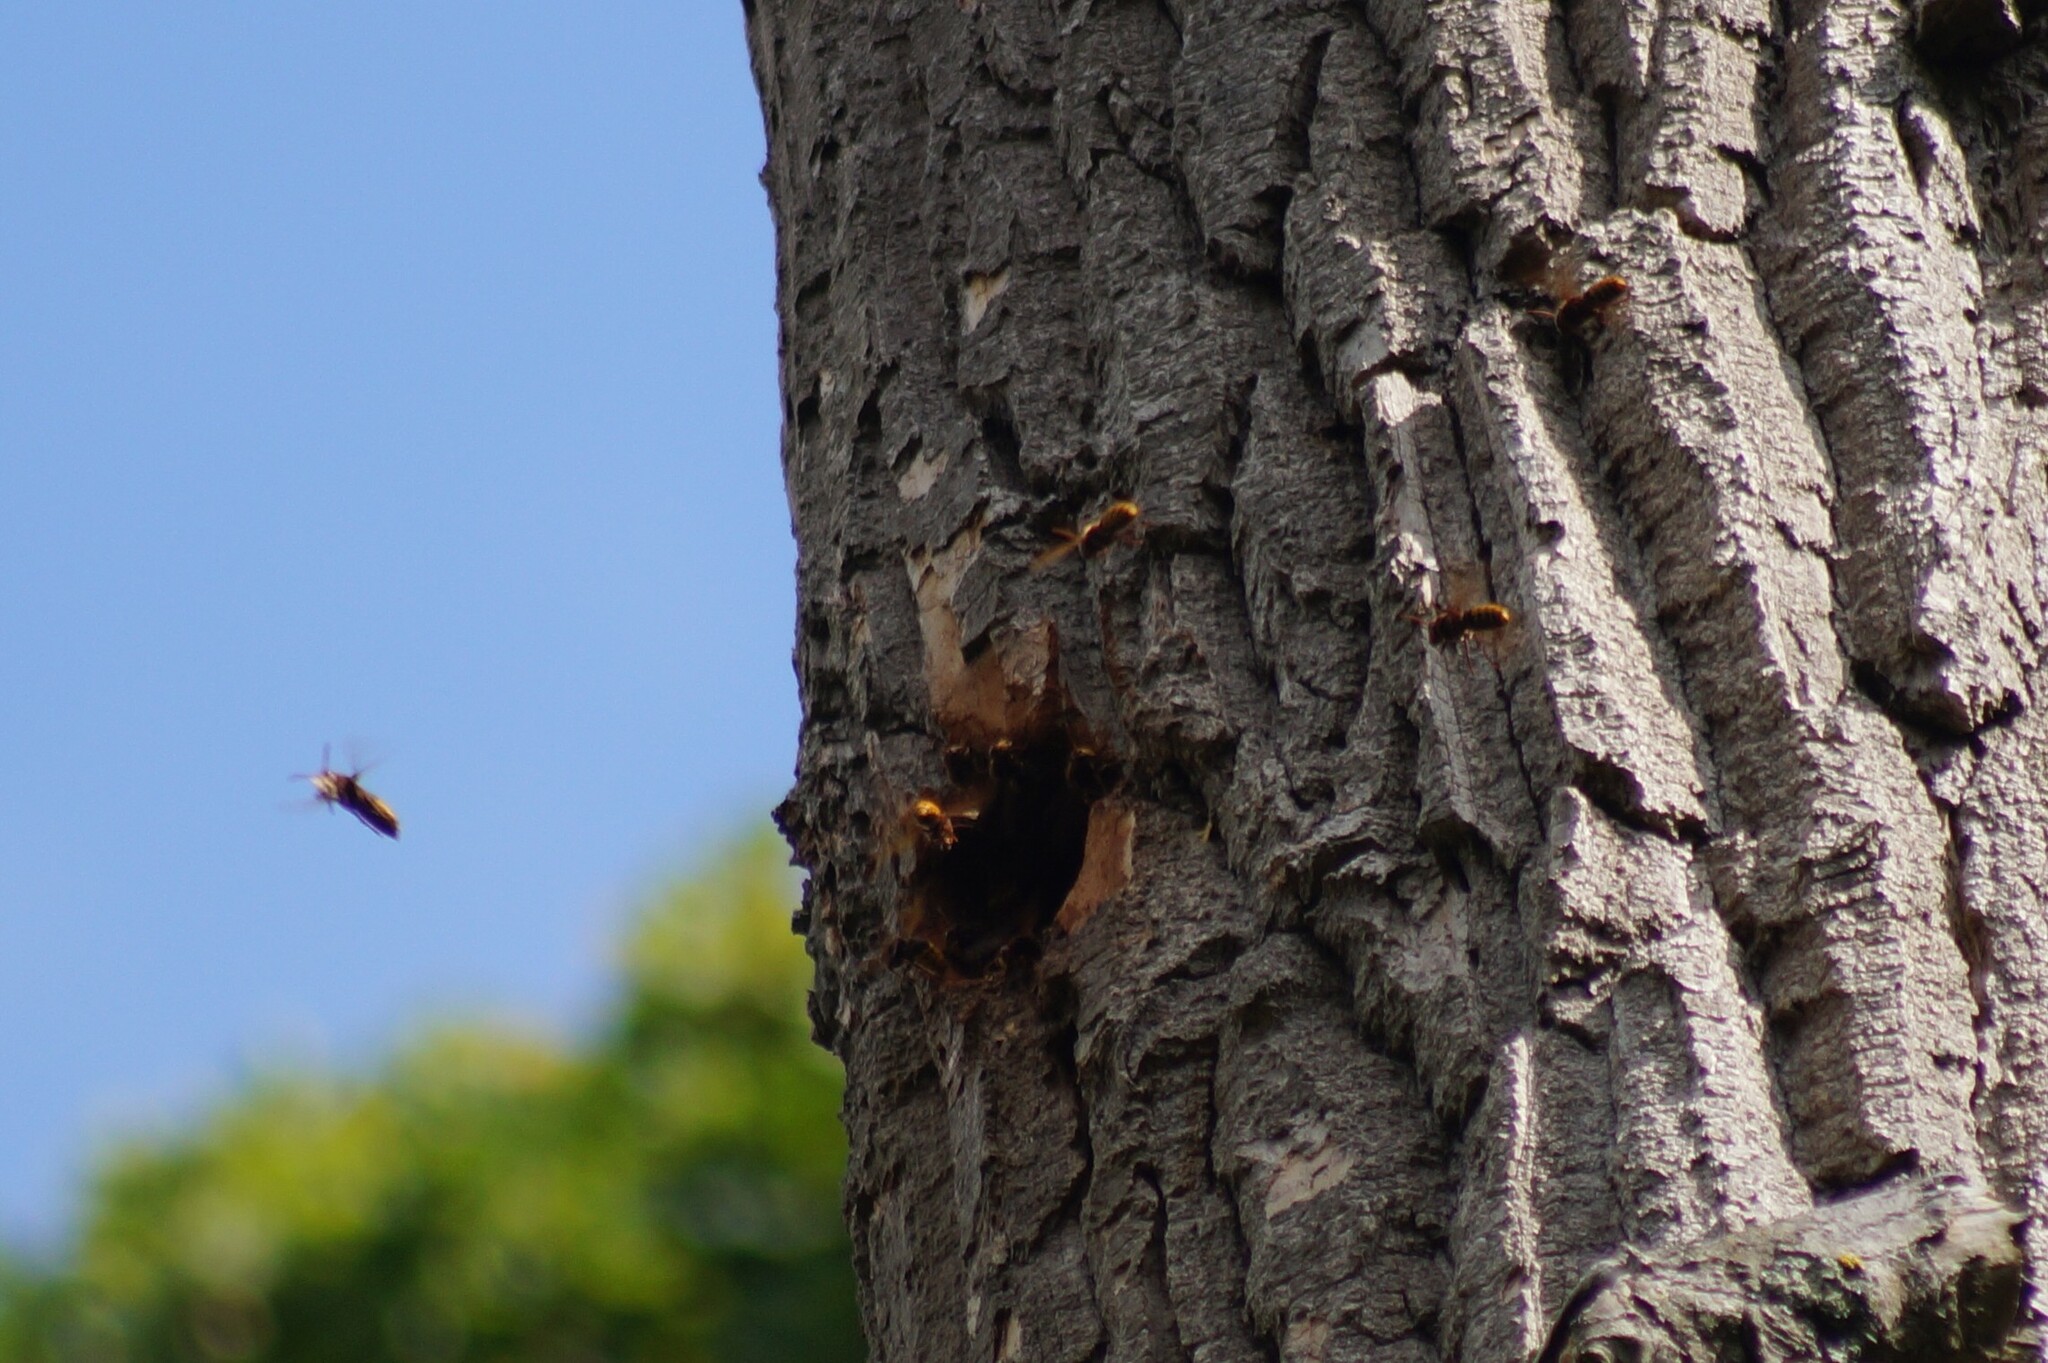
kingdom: Animalia
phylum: Arthropoda
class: Insecta
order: Hymenoptera
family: Vespidae
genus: Vespa
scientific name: Vespa crabro
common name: Hornet
